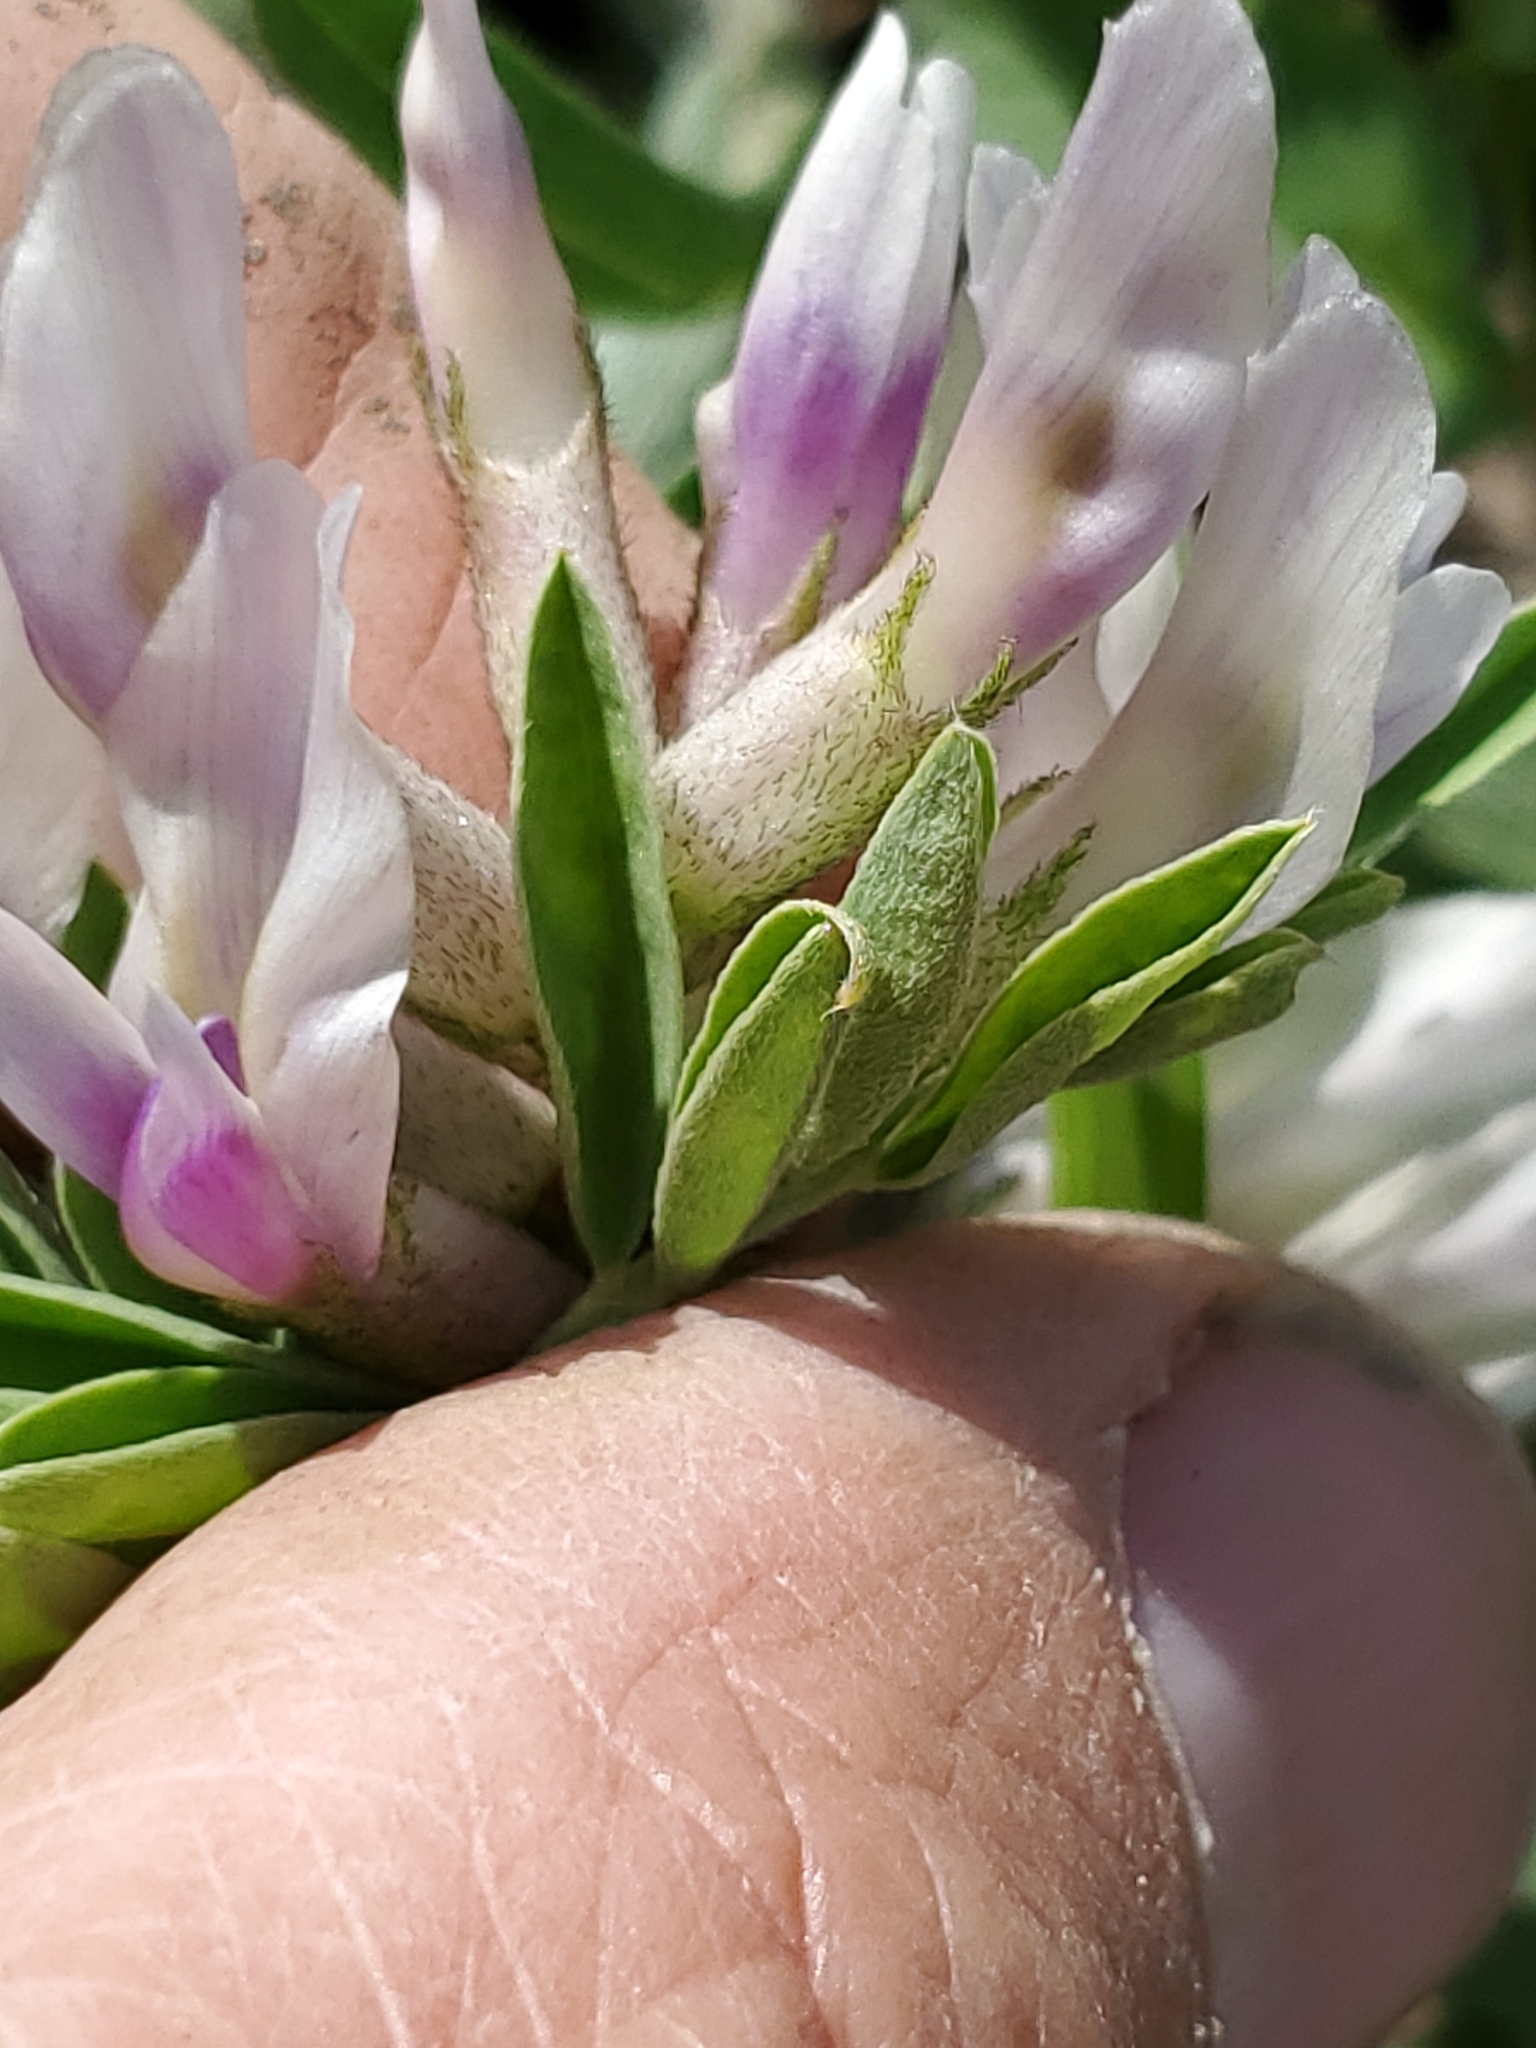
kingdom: Plantae
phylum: Tracheophyta
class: Magnoliopsida
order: Fabales
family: Fabaceae
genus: Astragalus
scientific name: Astragalus crassicarpus
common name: Ground-plum milk-vetch
